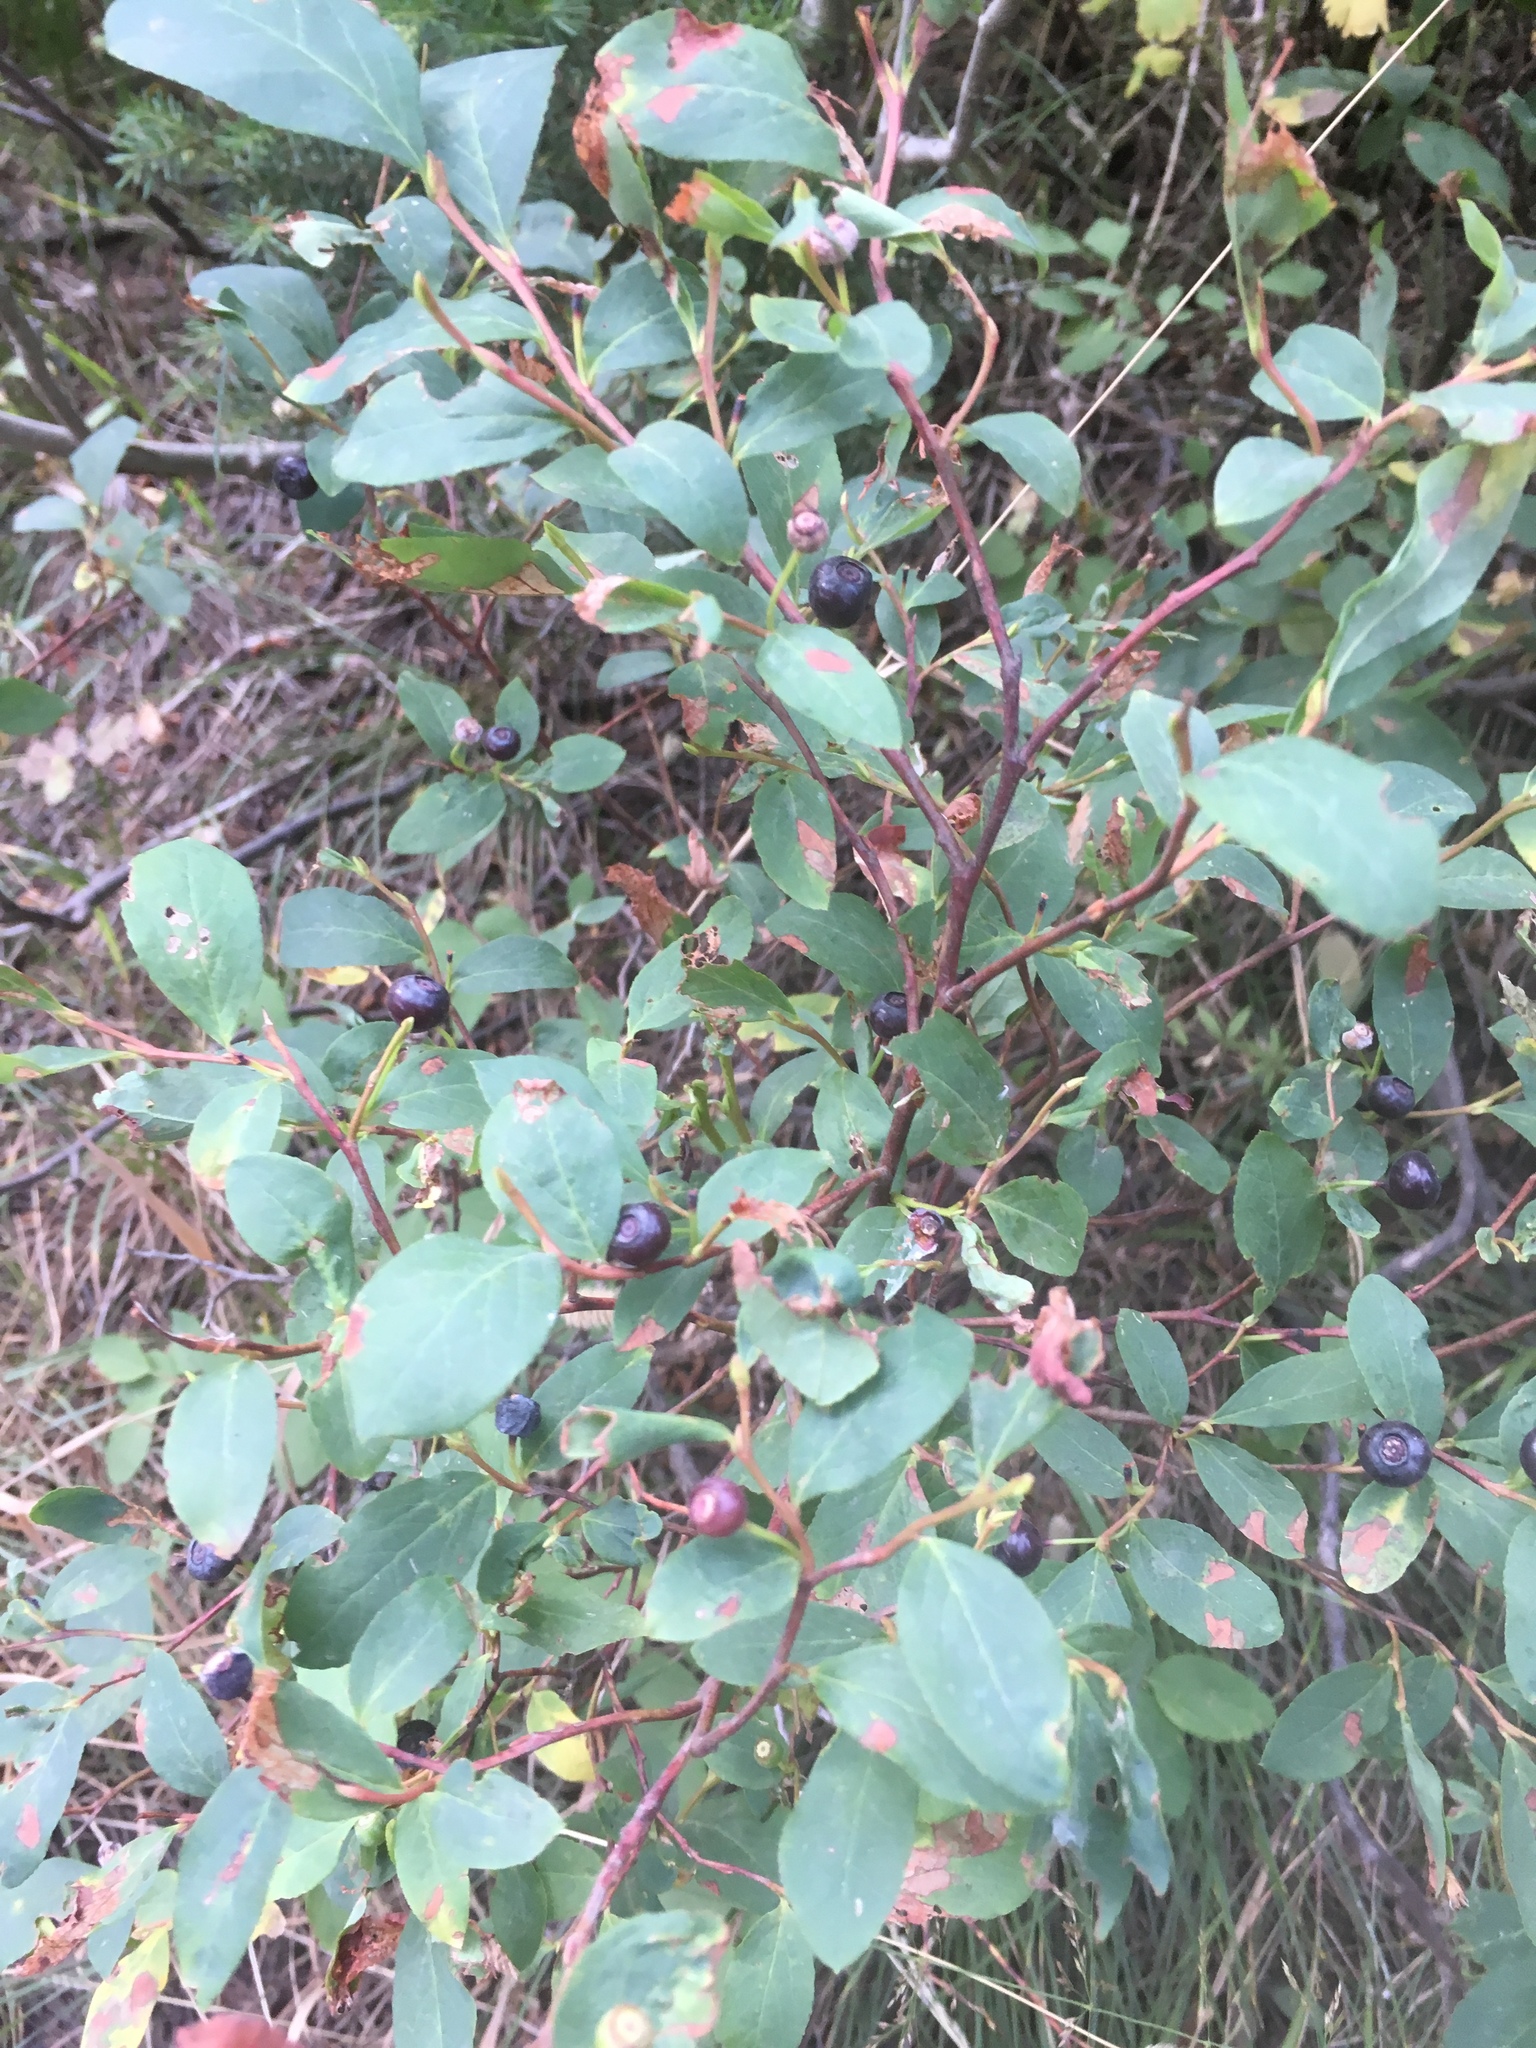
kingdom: Plantae
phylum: Tracheophyta
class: Magnoliopsida
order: Ericales
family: Ericaceae
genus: Vaccinium
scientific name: Vaccinium membranaceum
